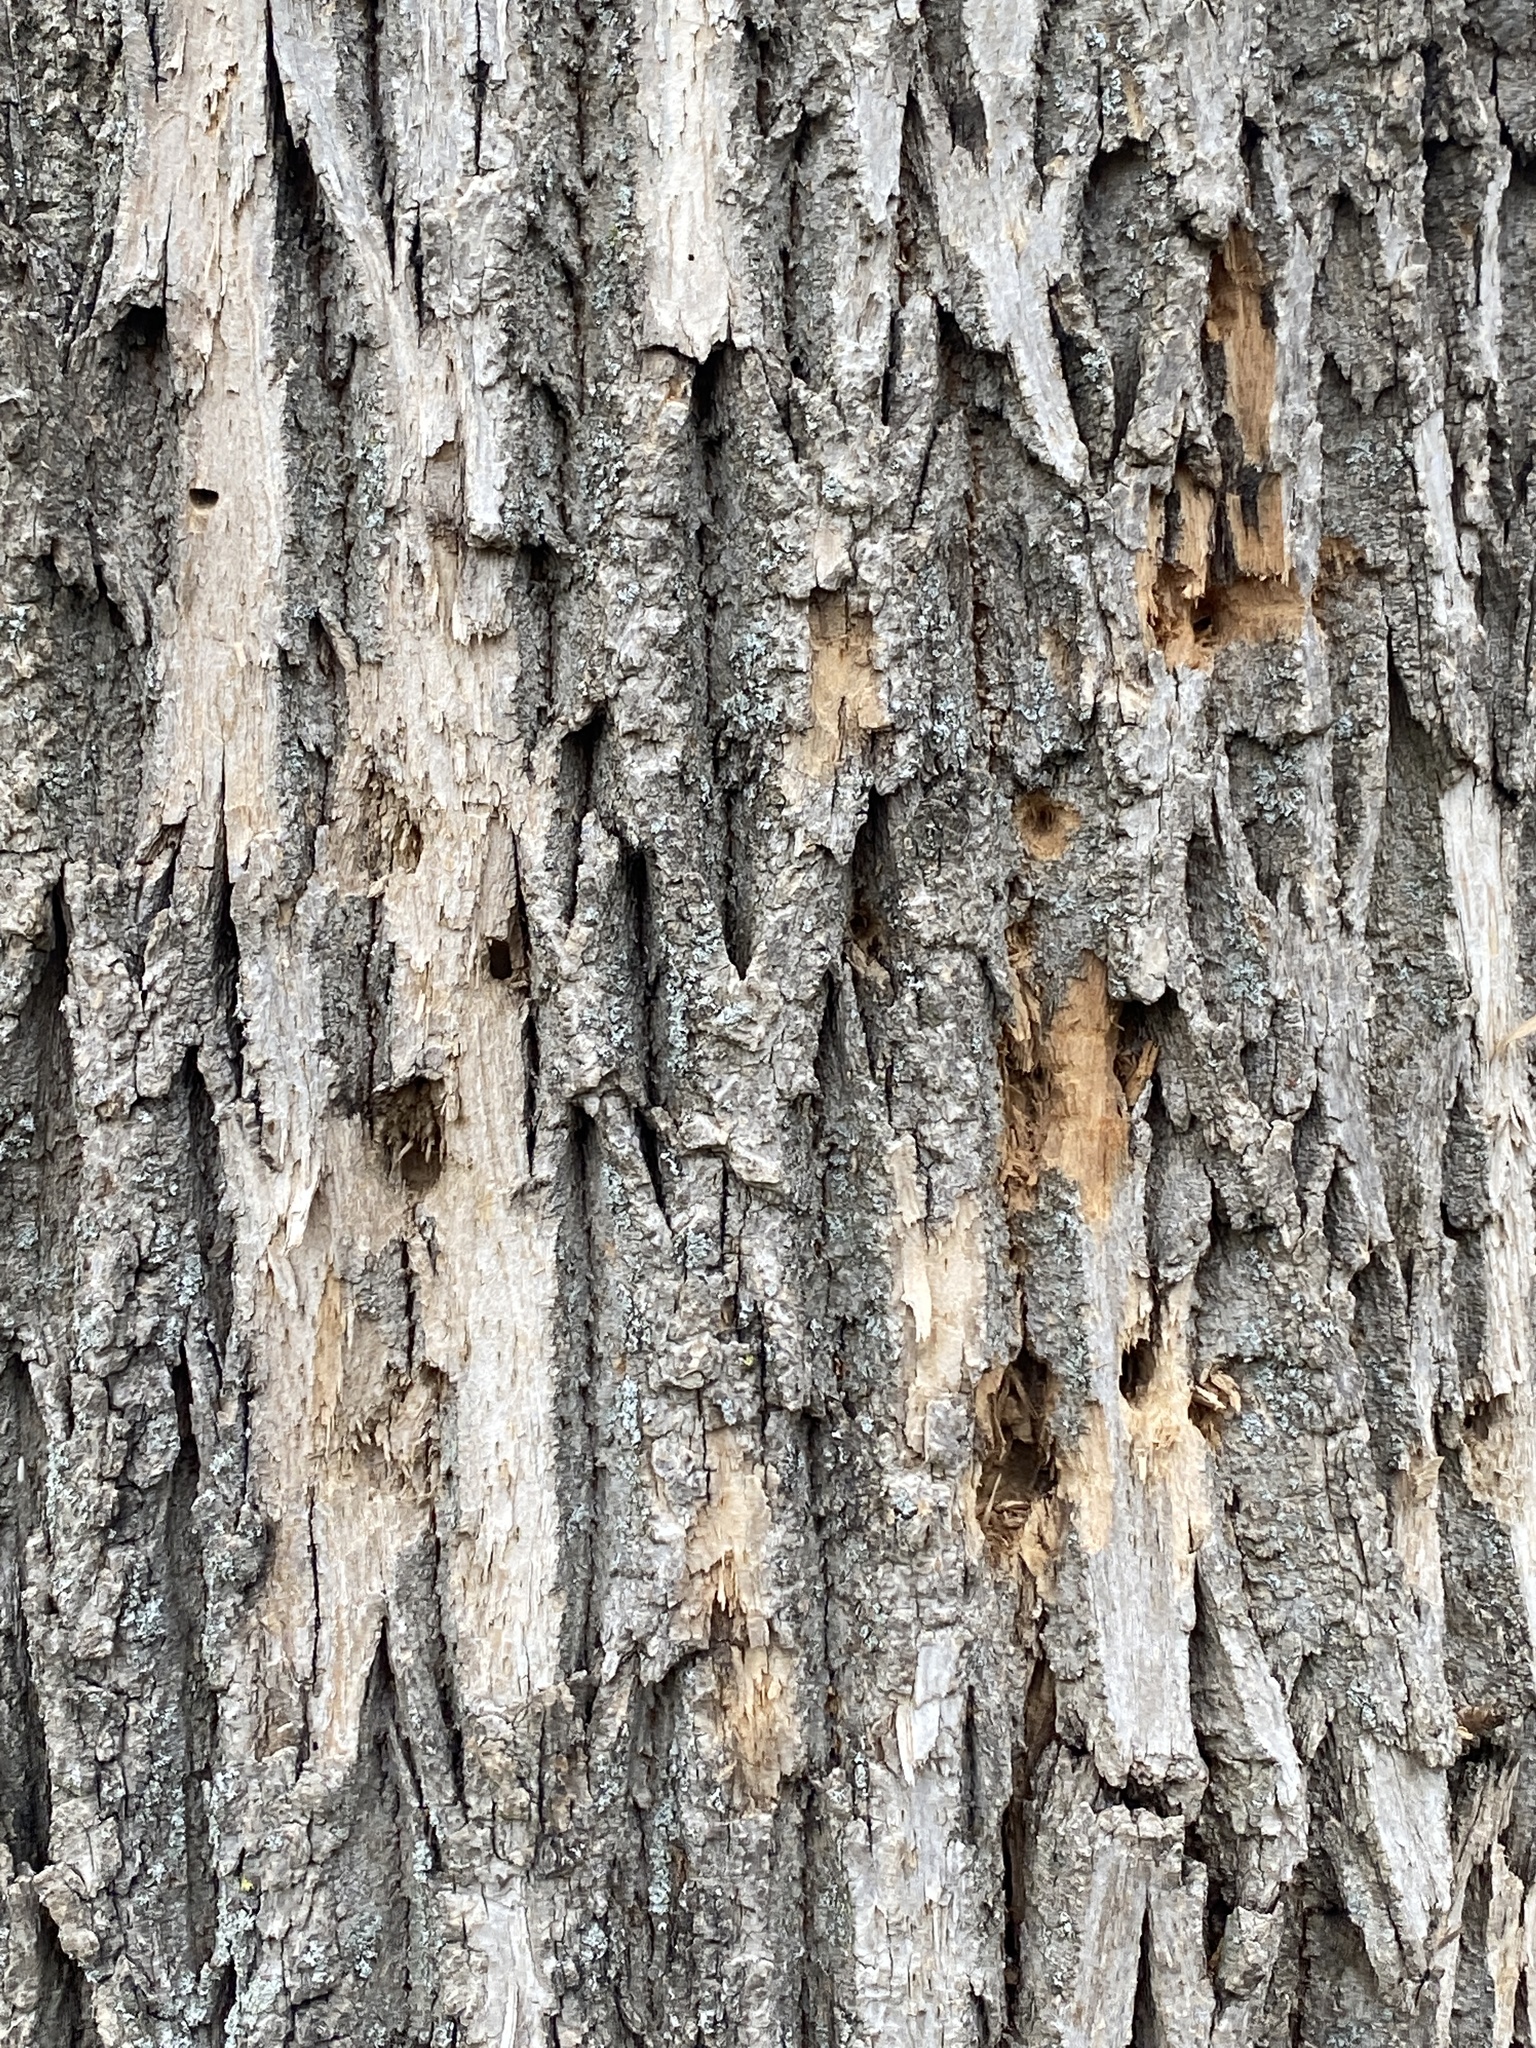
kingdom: Animalia
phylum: Arthropoda
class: Insecta
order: Coleoptera
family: Buprestidae
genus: Agrilus
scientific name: Agrilus planipennis
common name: Emerald ash borer
